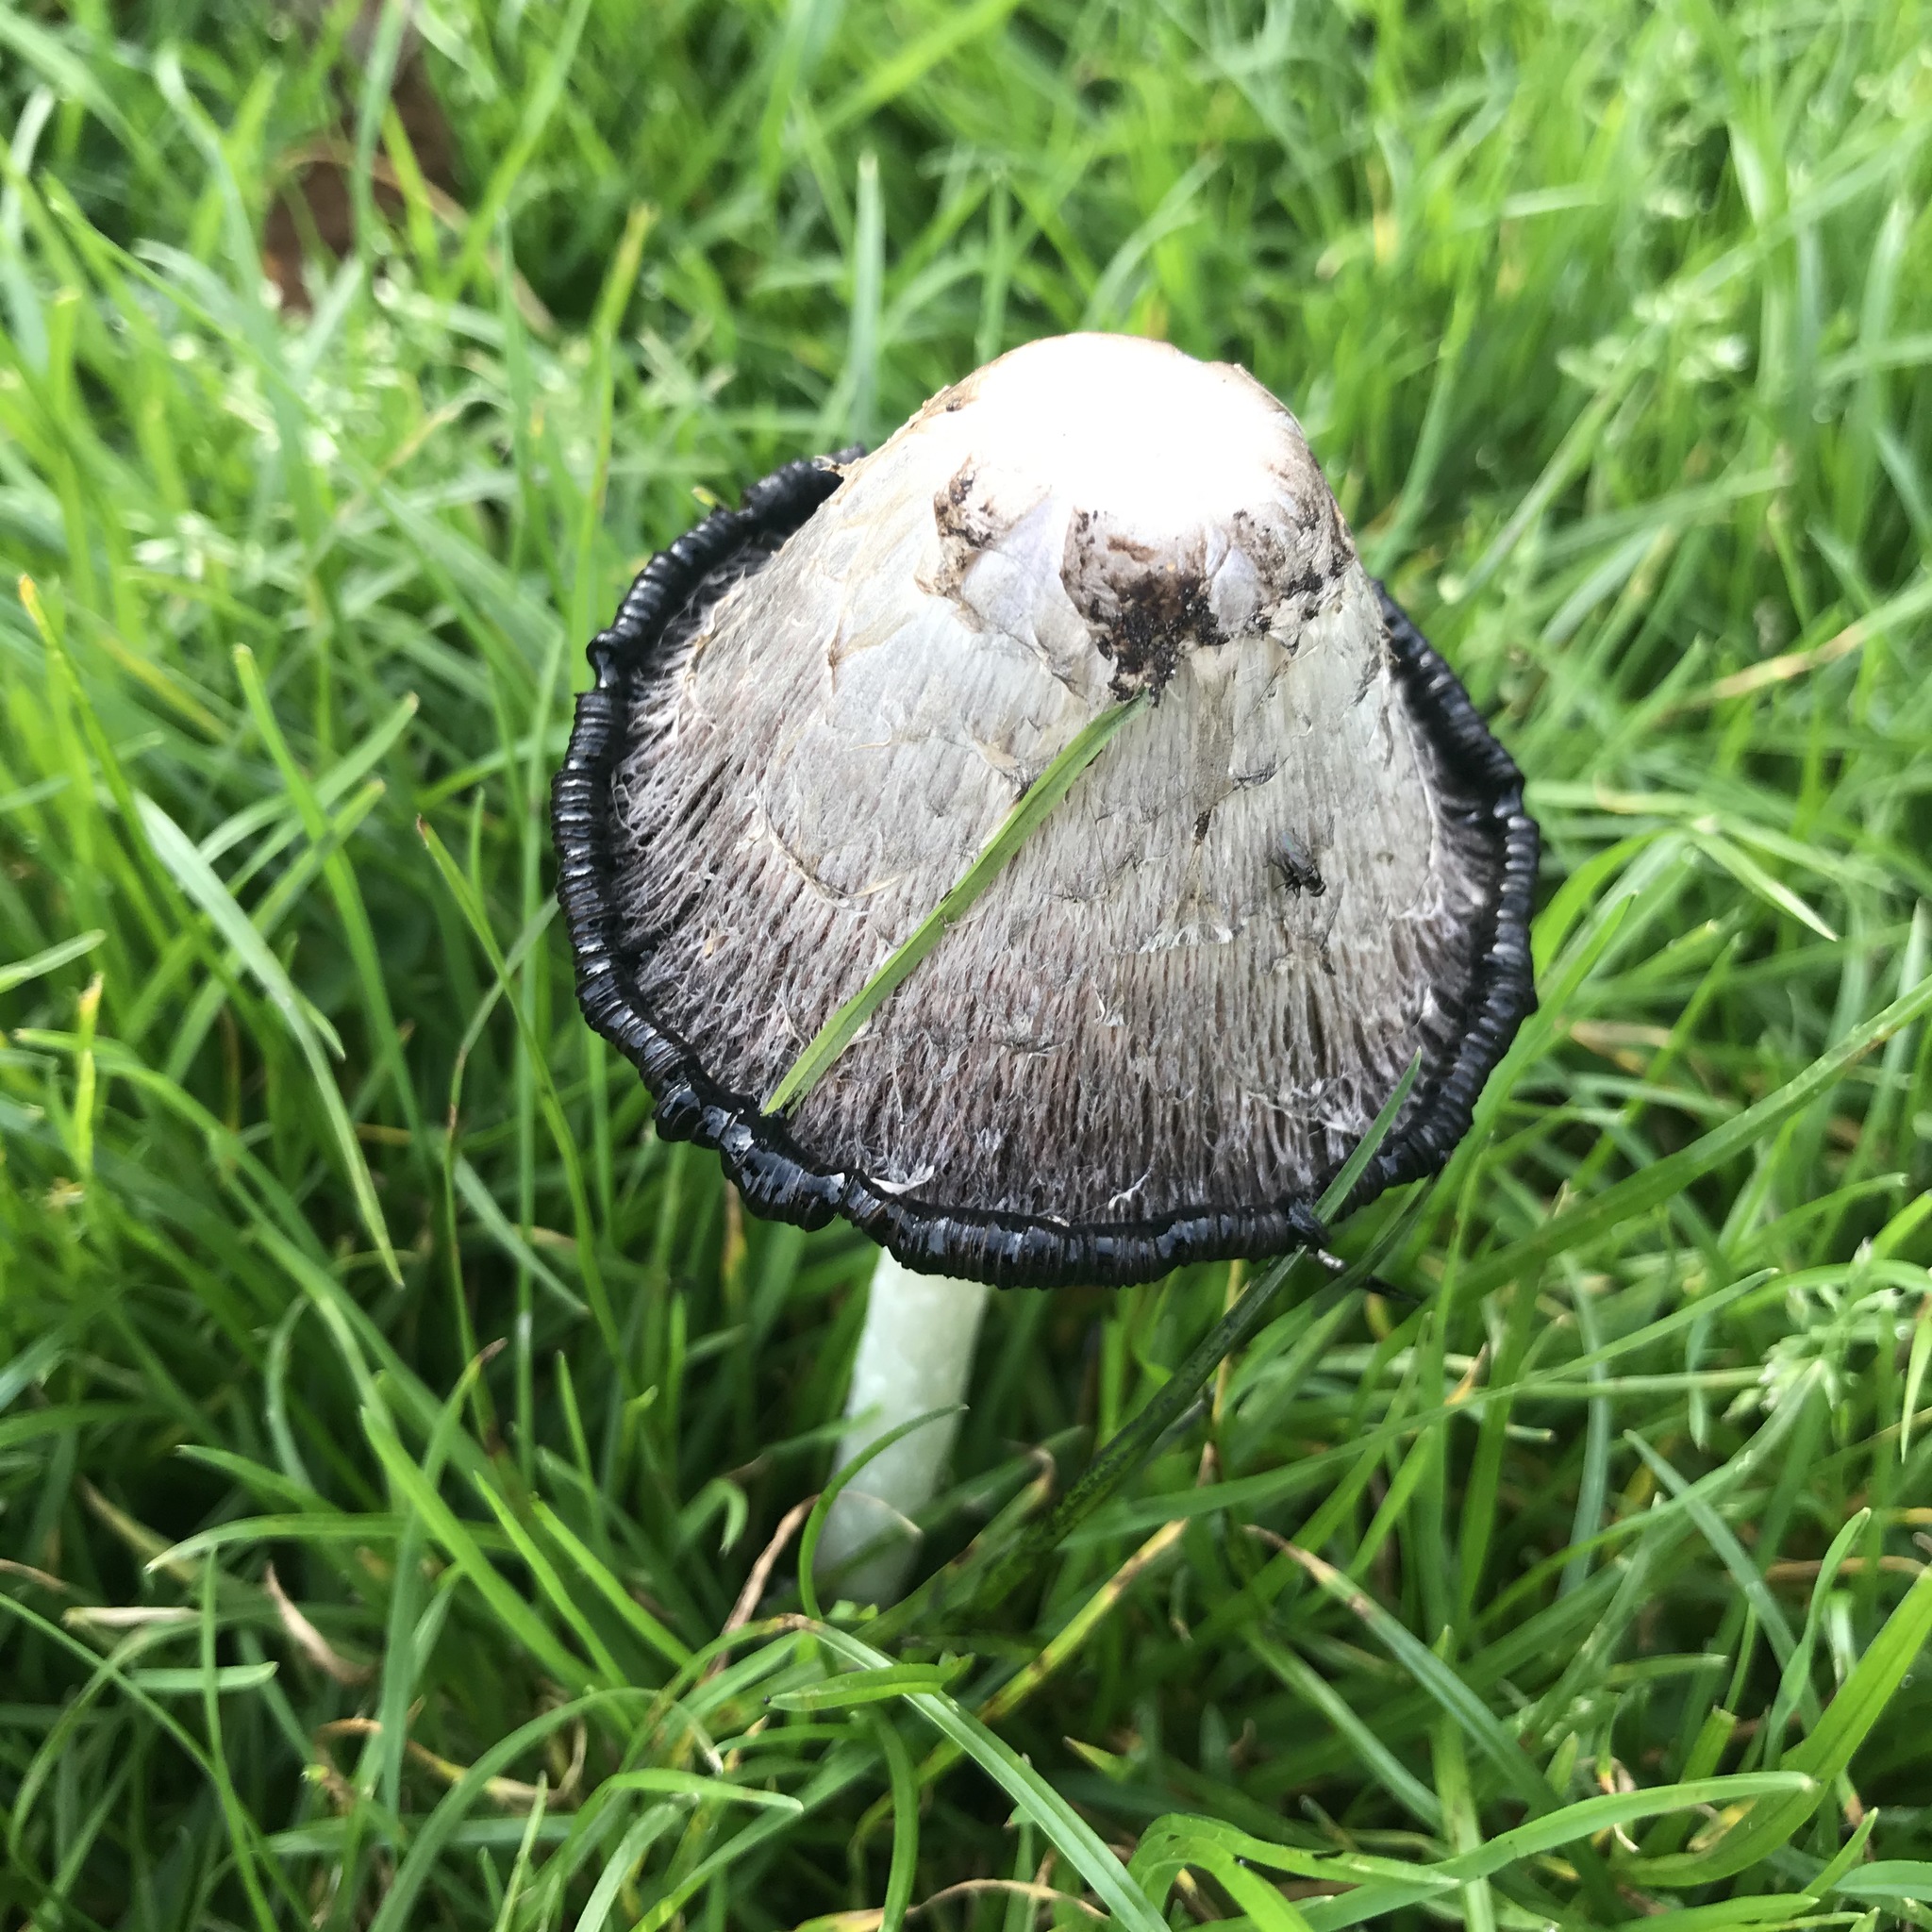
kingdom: Fungi
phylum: Basidiomycota
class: Agaricomycetes
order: Agaricales
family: Agaricaceae
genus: Coprinus
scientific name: Coprinus comatus
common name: Lawyer's wig
